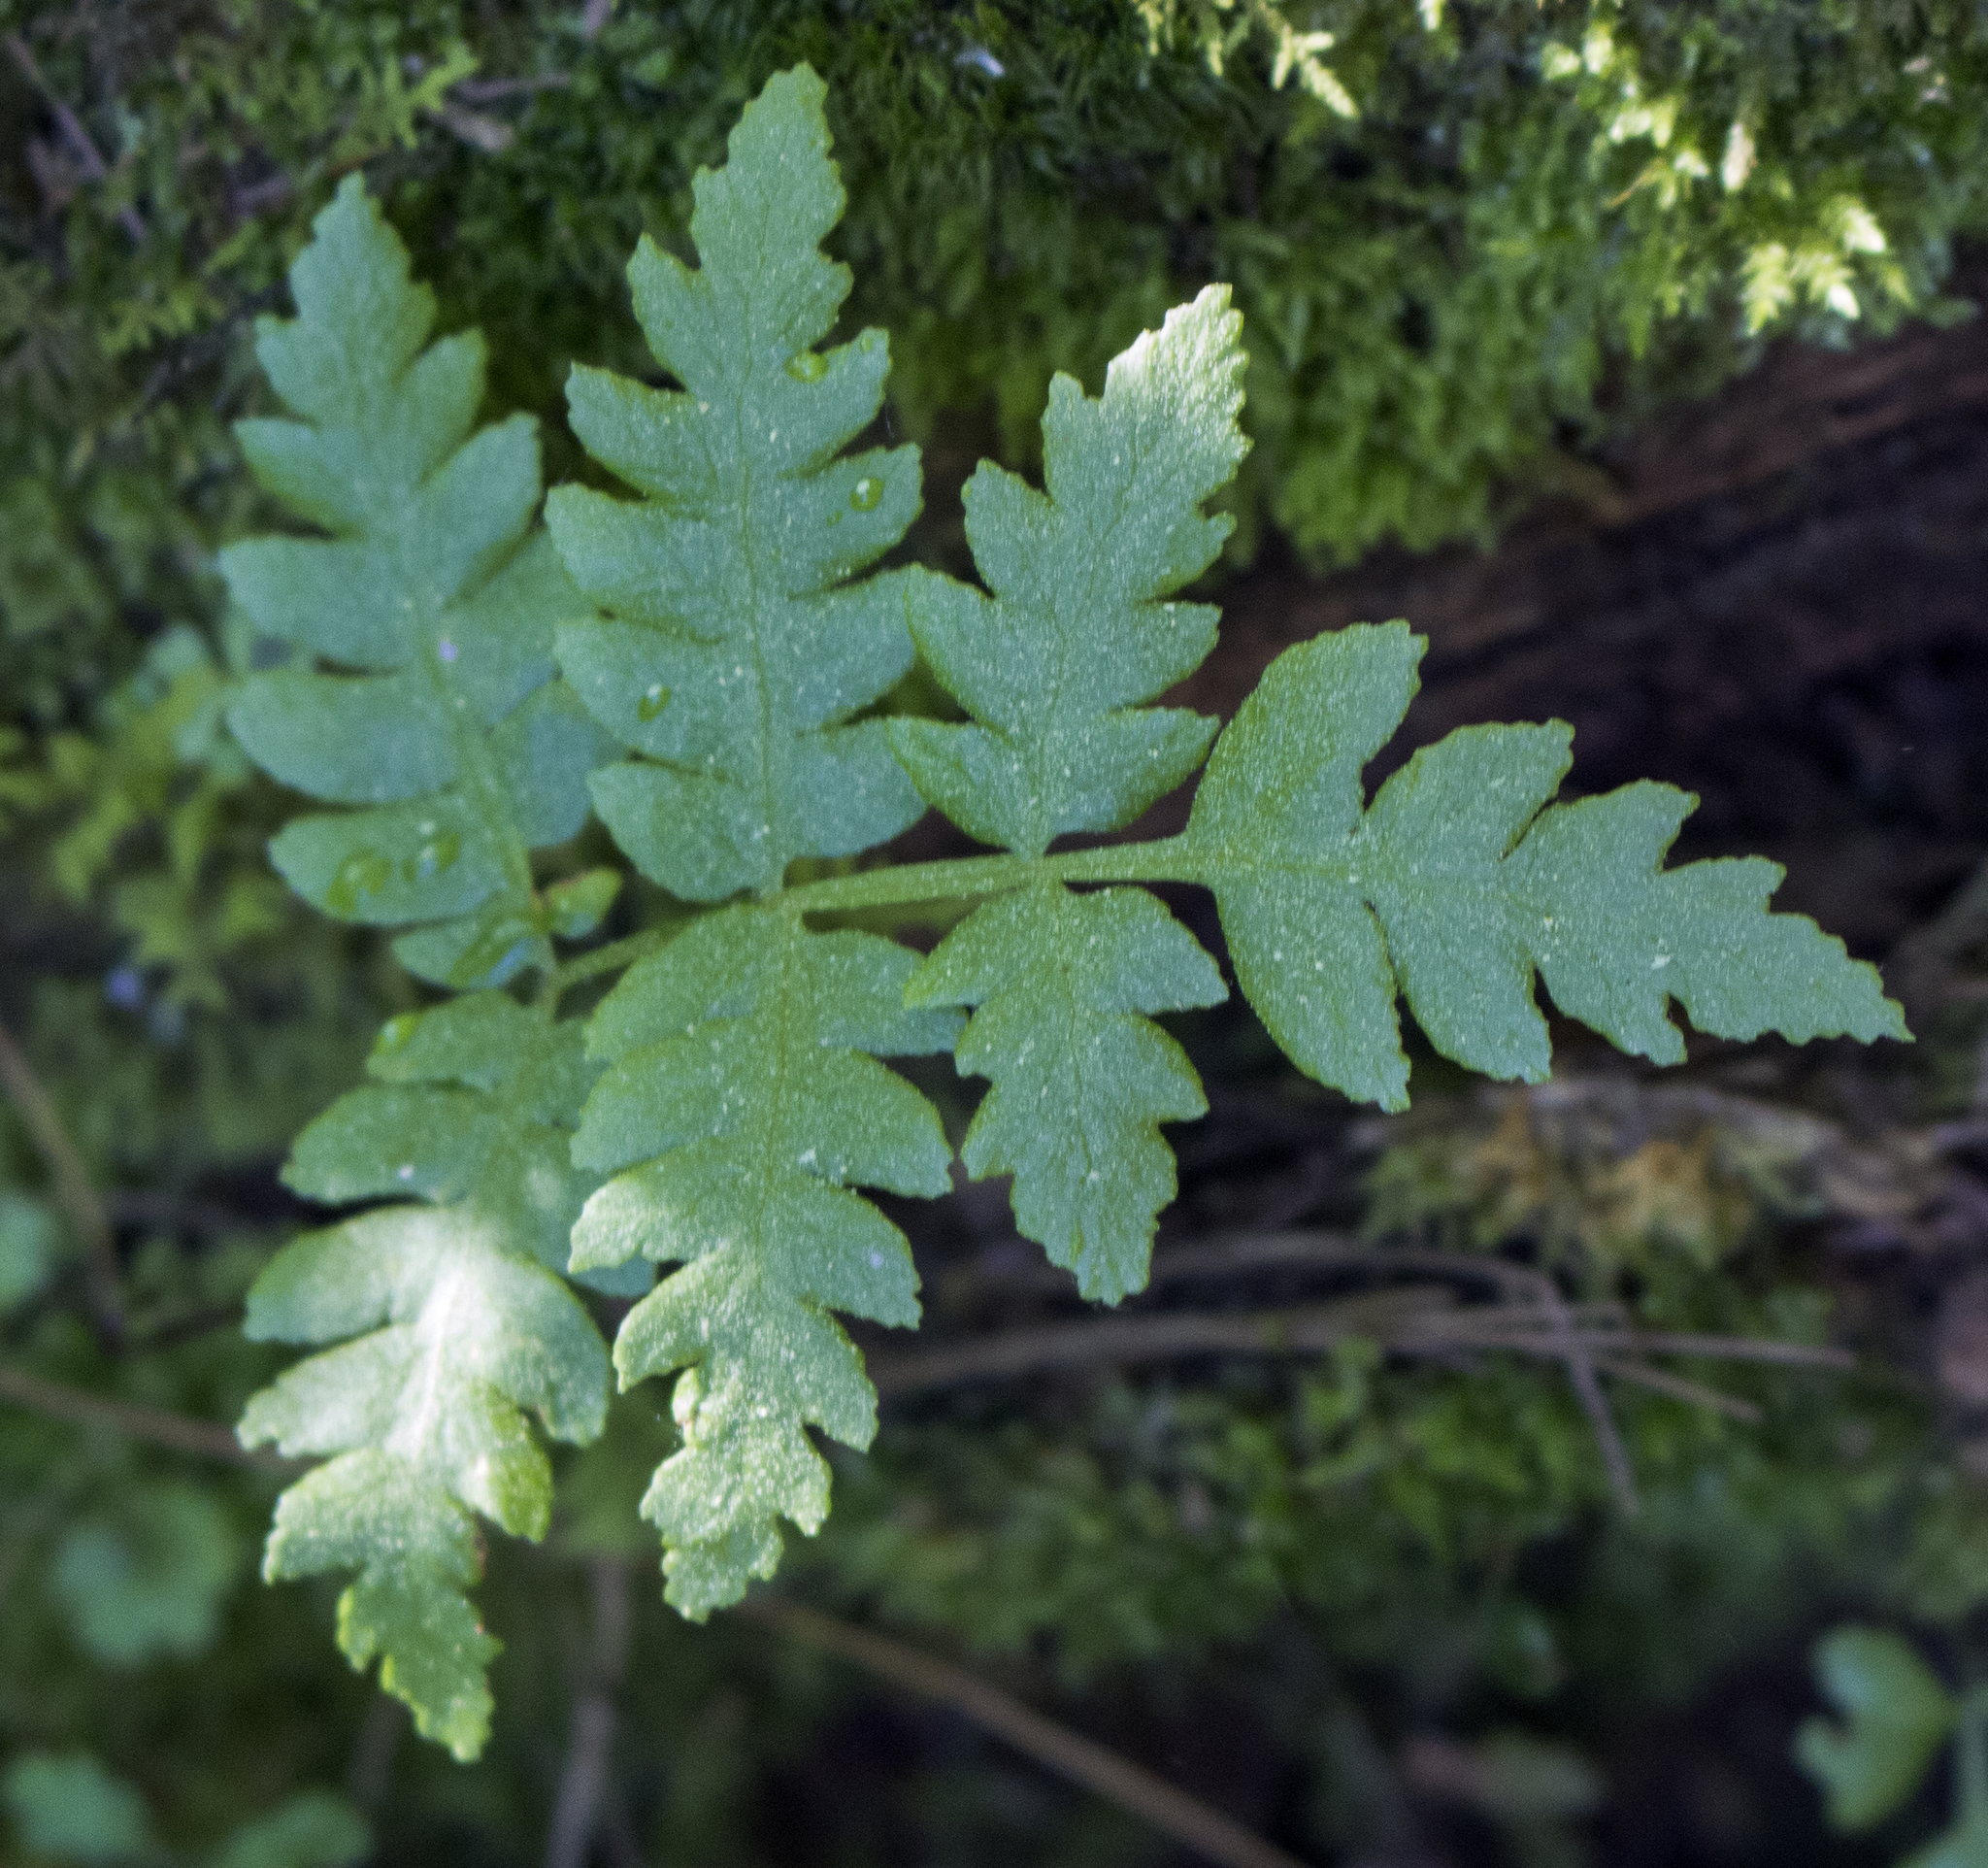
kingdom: Plantae
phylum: Tracheophyta
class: Polypodiopsida
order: Osmundales
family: Osmundaceae
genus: Osmundastrum
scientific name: Osmundastrum cinnamomeum
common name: Cinnamon fern
